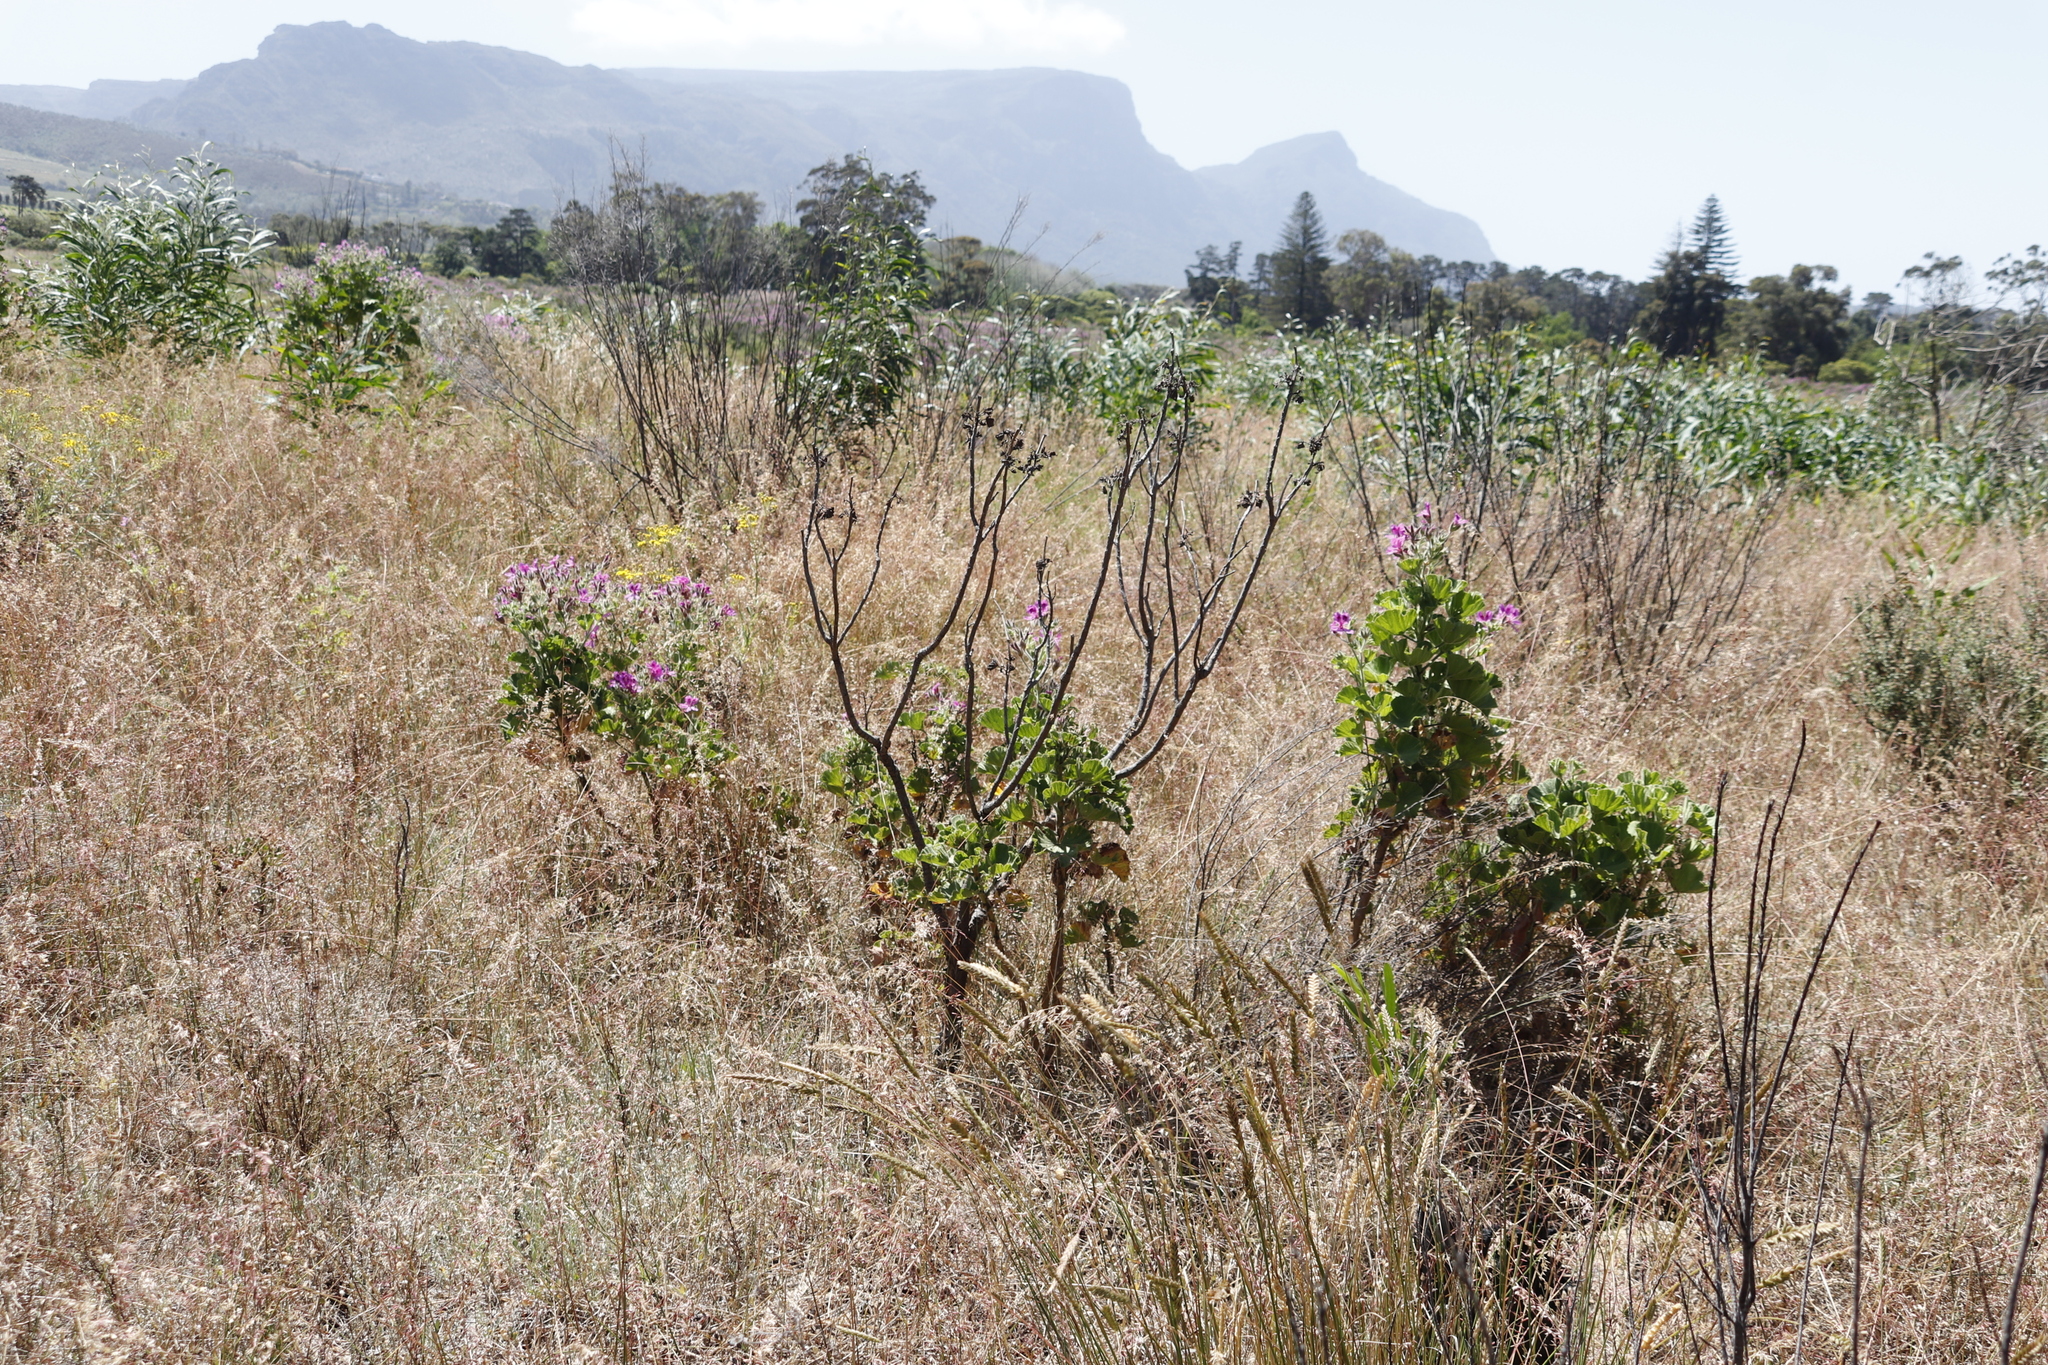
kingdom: Plantae
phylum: Tracheophyta
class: Magnoliopsida
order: Geraniales
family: Geraniaceae
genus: Pelargonium
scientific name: Pelargonium cucullatum
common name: Tree pelargonium
